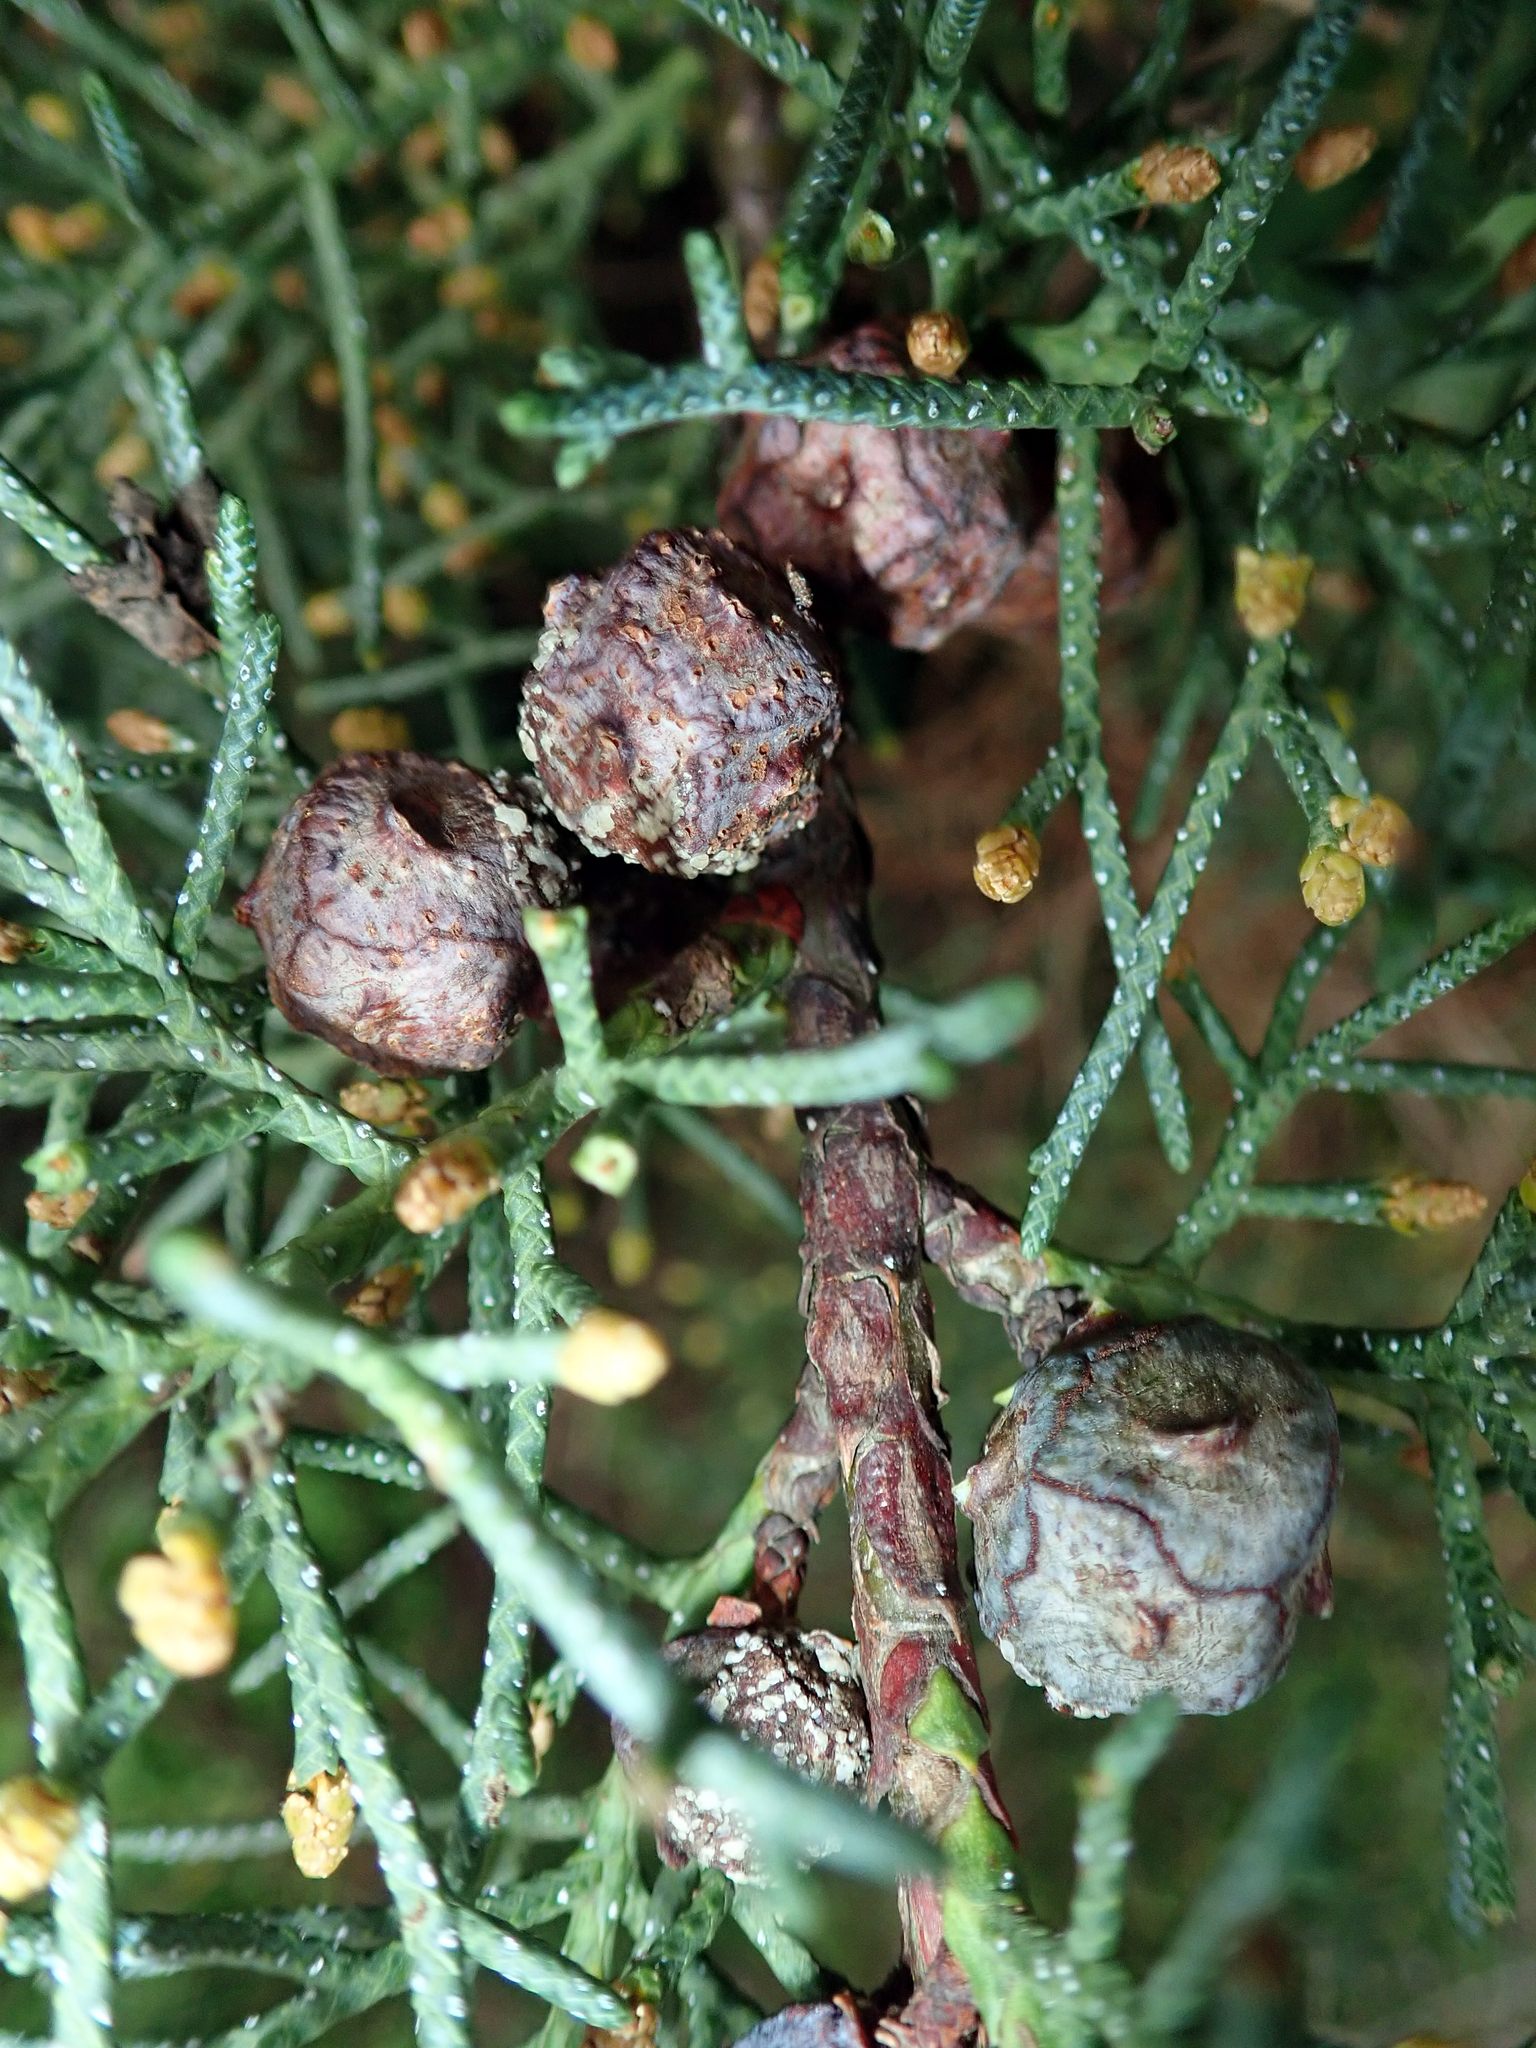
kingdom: Plantae
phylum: Tracheophyta
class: Pinopsida
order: Pinales
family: Cupressaceae
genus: Cupressus
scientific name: Cupressus arizonica
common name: Arizona cypress
